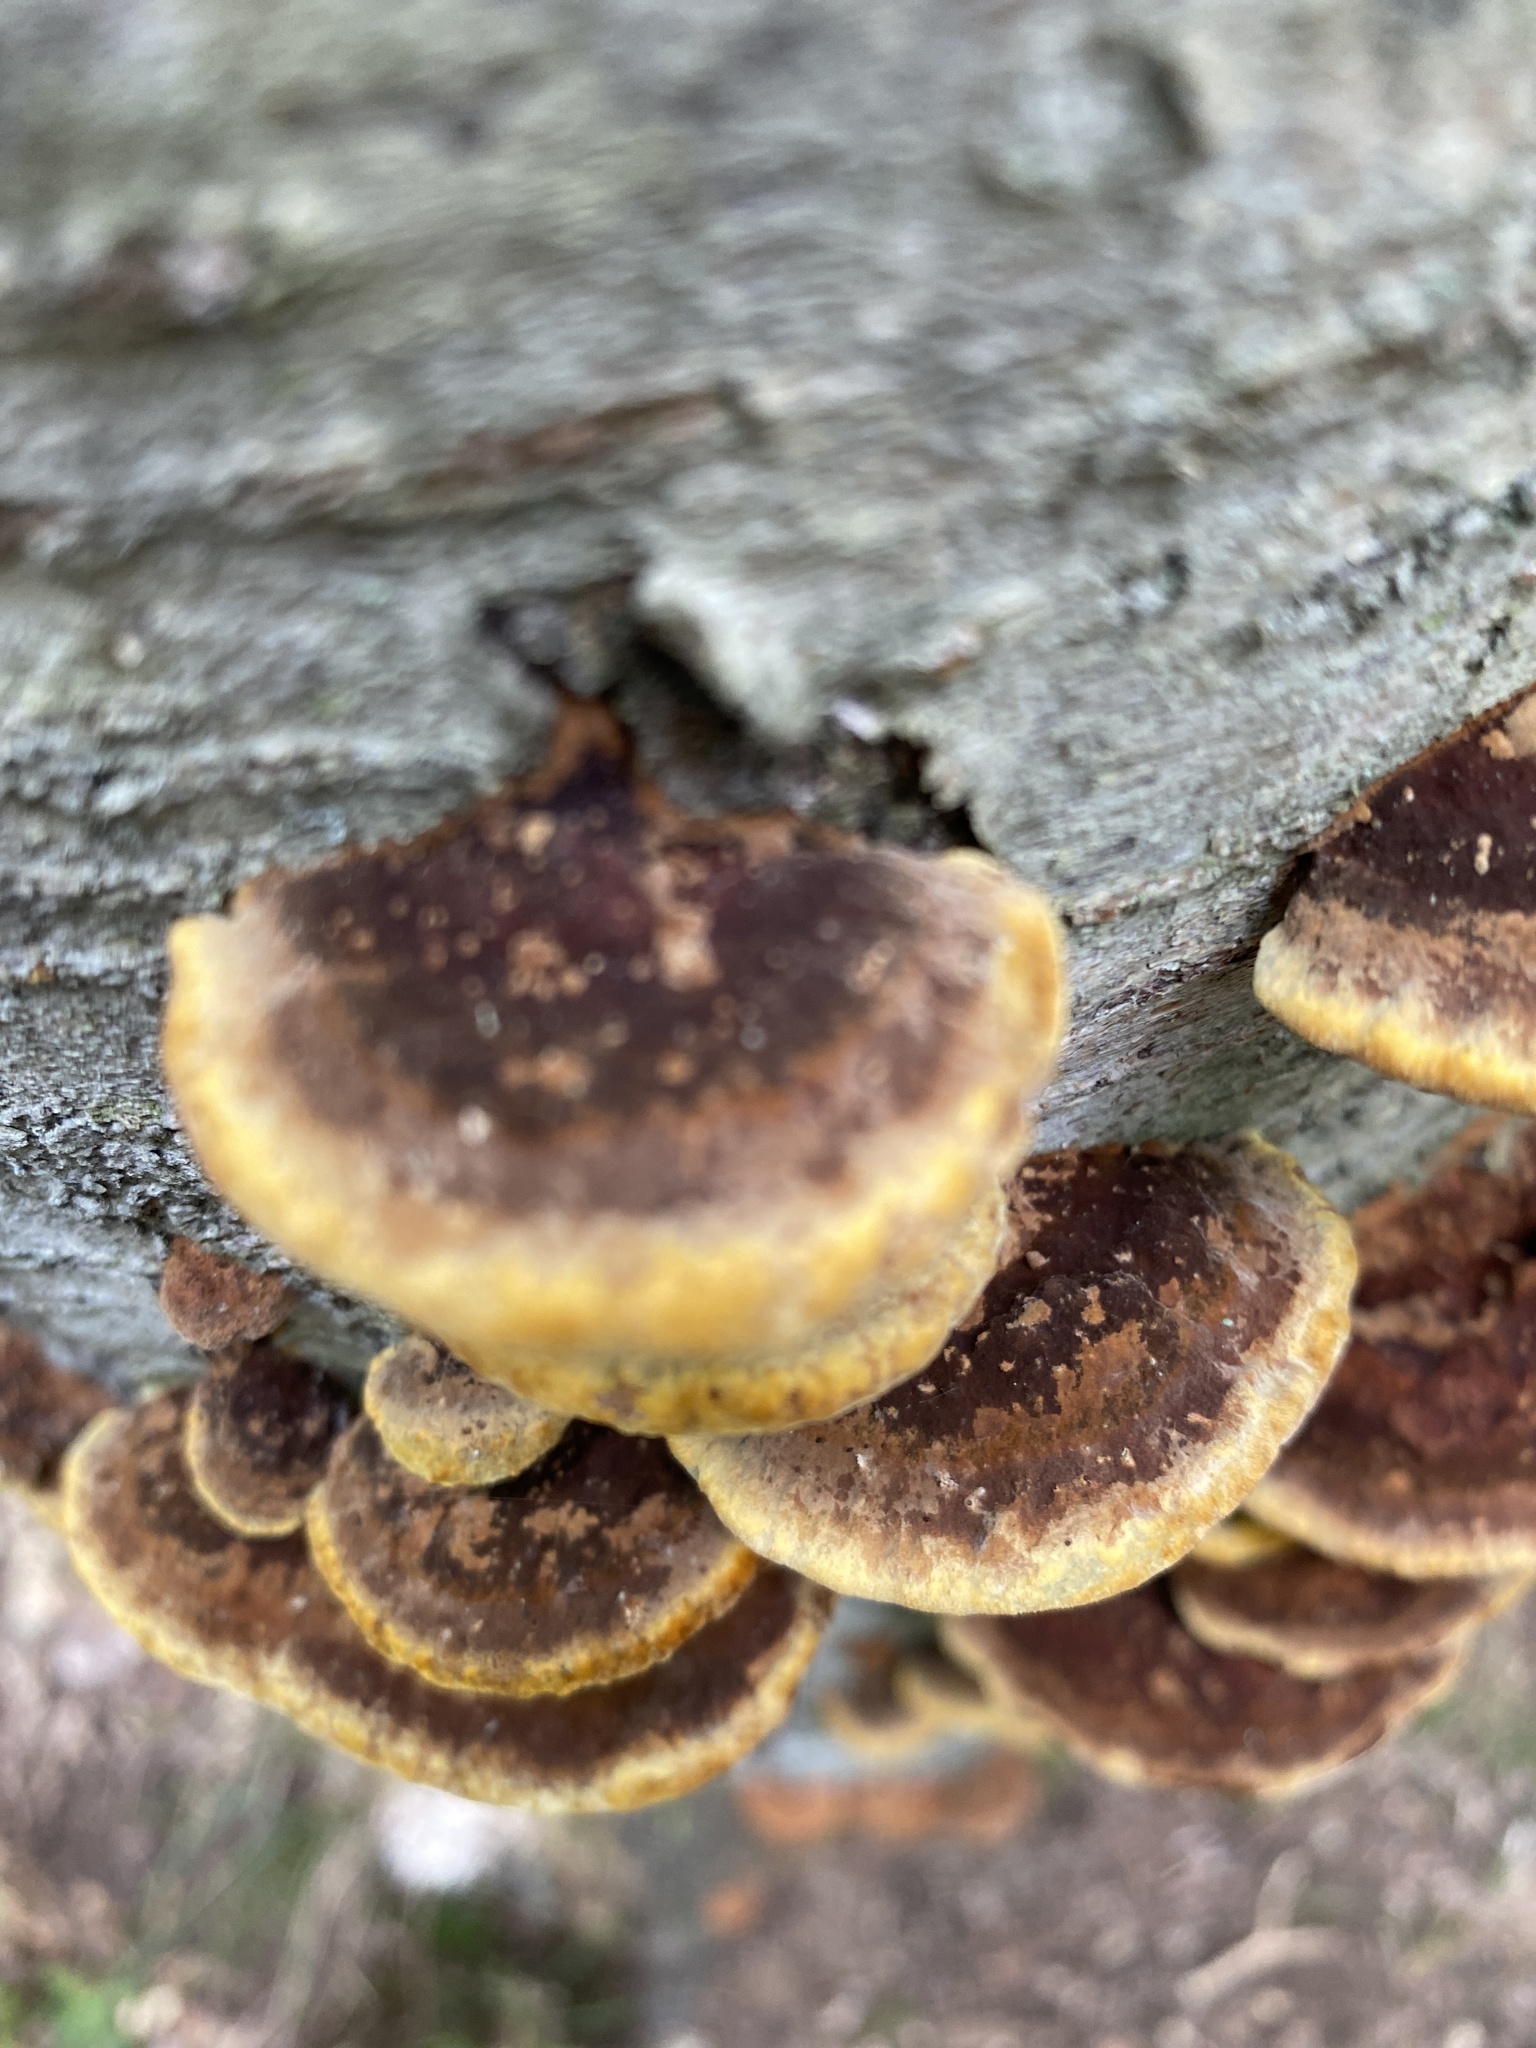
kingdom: Fungi
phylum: Basidiomycota
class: Agaricomycetes
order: Hymenochaetales
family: Hymenochaetaceae
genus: Phellinus
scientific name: Phellinus gilvus
